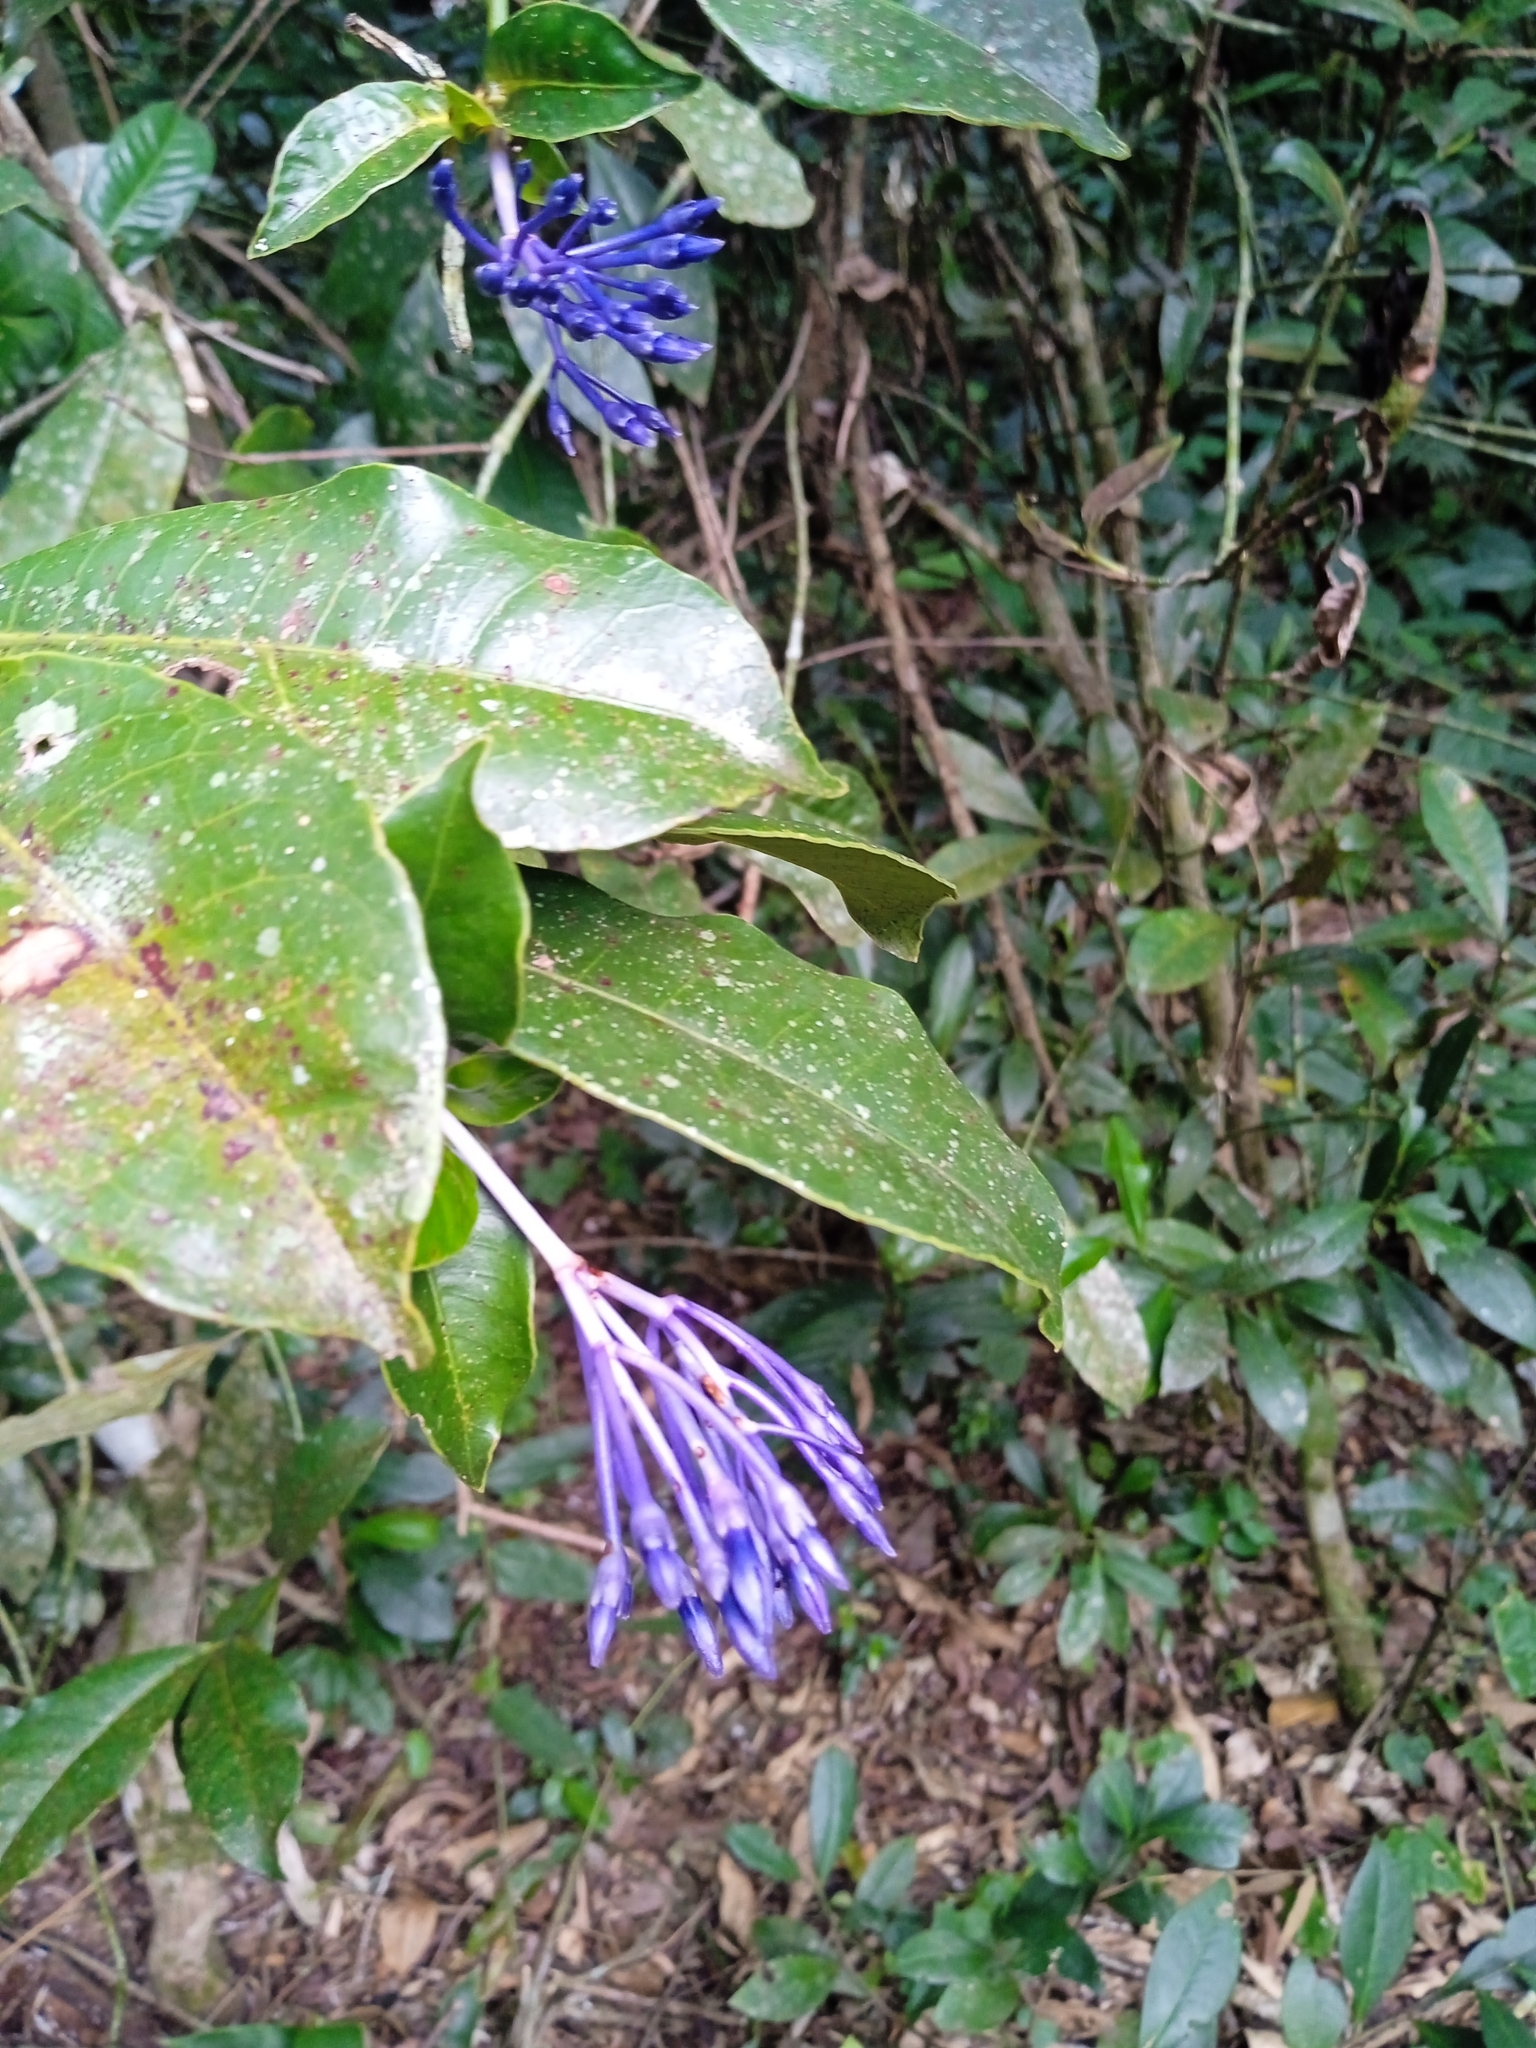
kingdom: Plantae
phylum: Tracheophyta
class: Magnoliopsida
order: Gentianales
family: Rubiaceae
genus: Faramea
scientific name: Faramea hyacinthina
